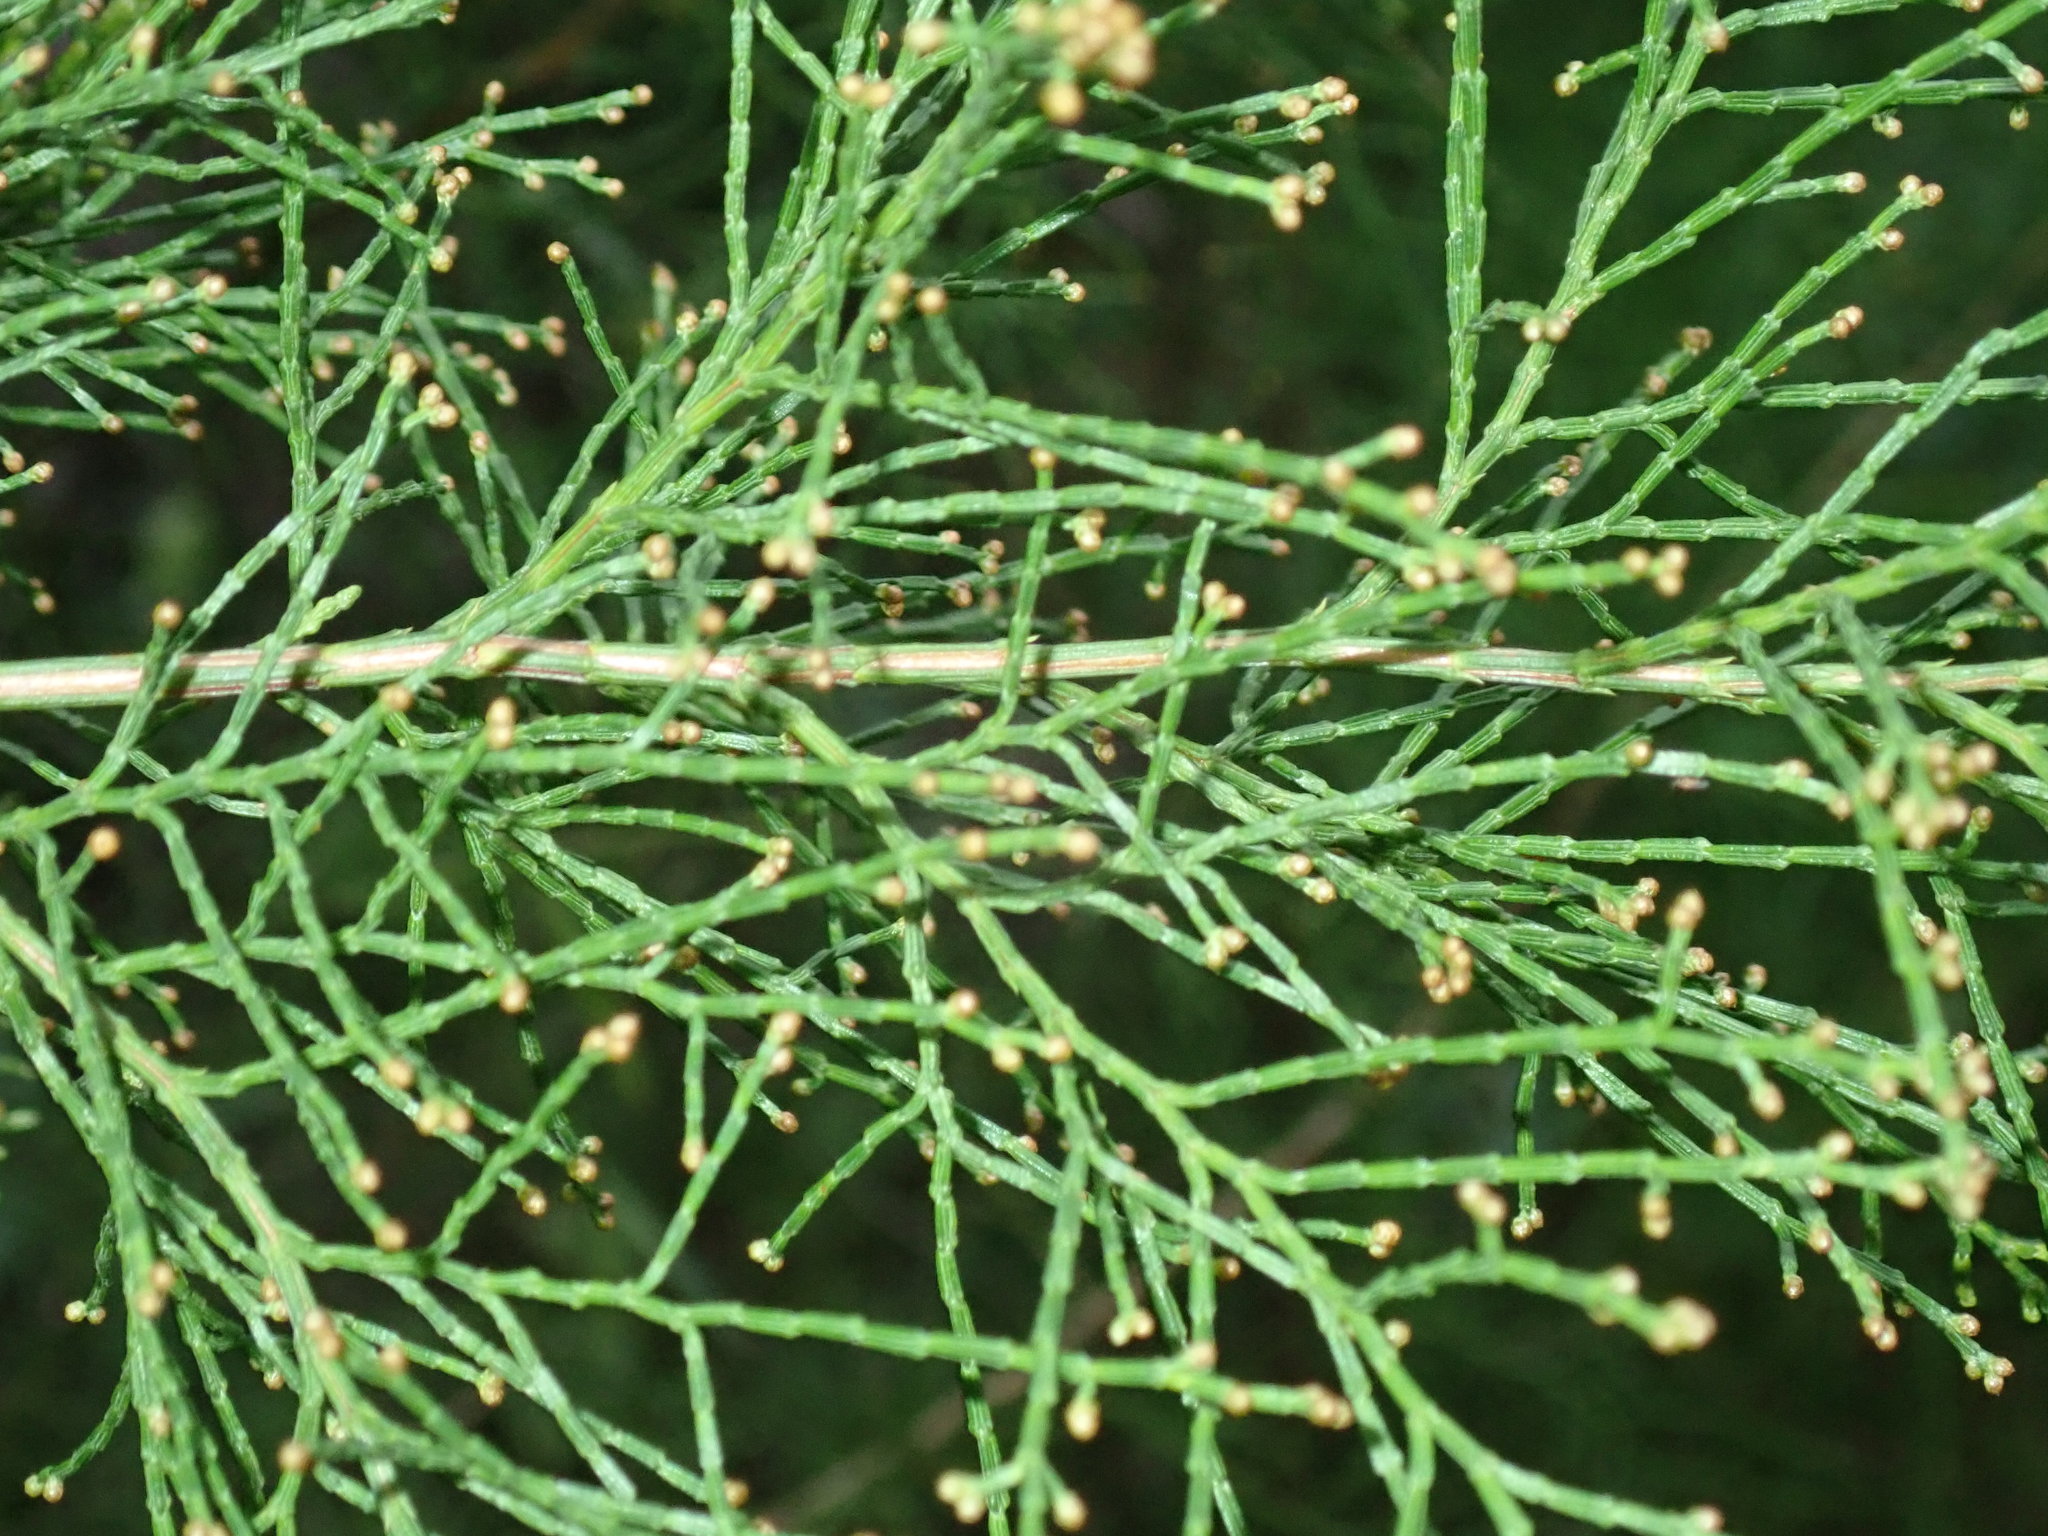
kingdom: Plantae
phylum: Tracheophyta
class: Pinopsida
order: Pinales
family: Cupressaceae
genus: Callitris
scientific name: Callitris rhomboidea
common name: Illawara mountain pine
